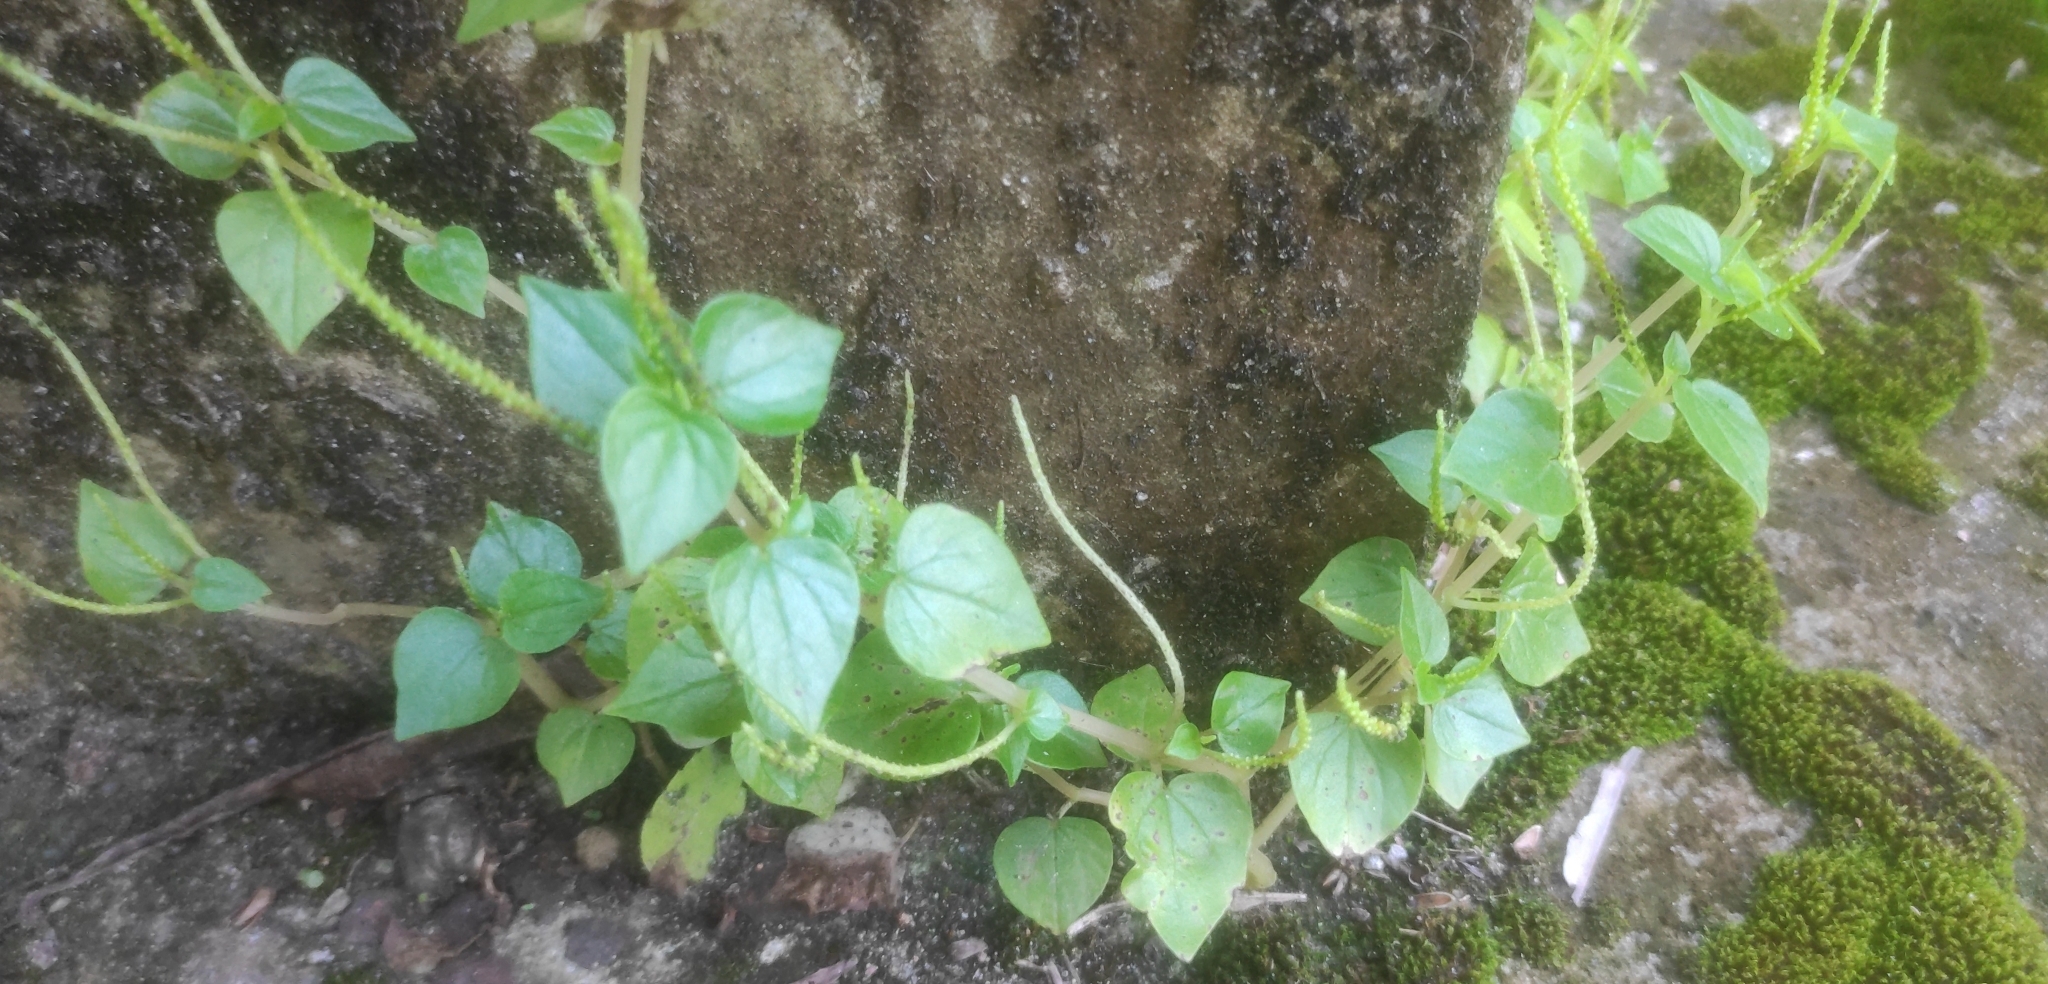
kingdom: Plantae
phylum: Tracheophyta
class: Magnoliopsida
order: Piperales
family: Piperaceae
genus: Peperomia
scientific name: Peperomia pellucida
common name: Man to man
